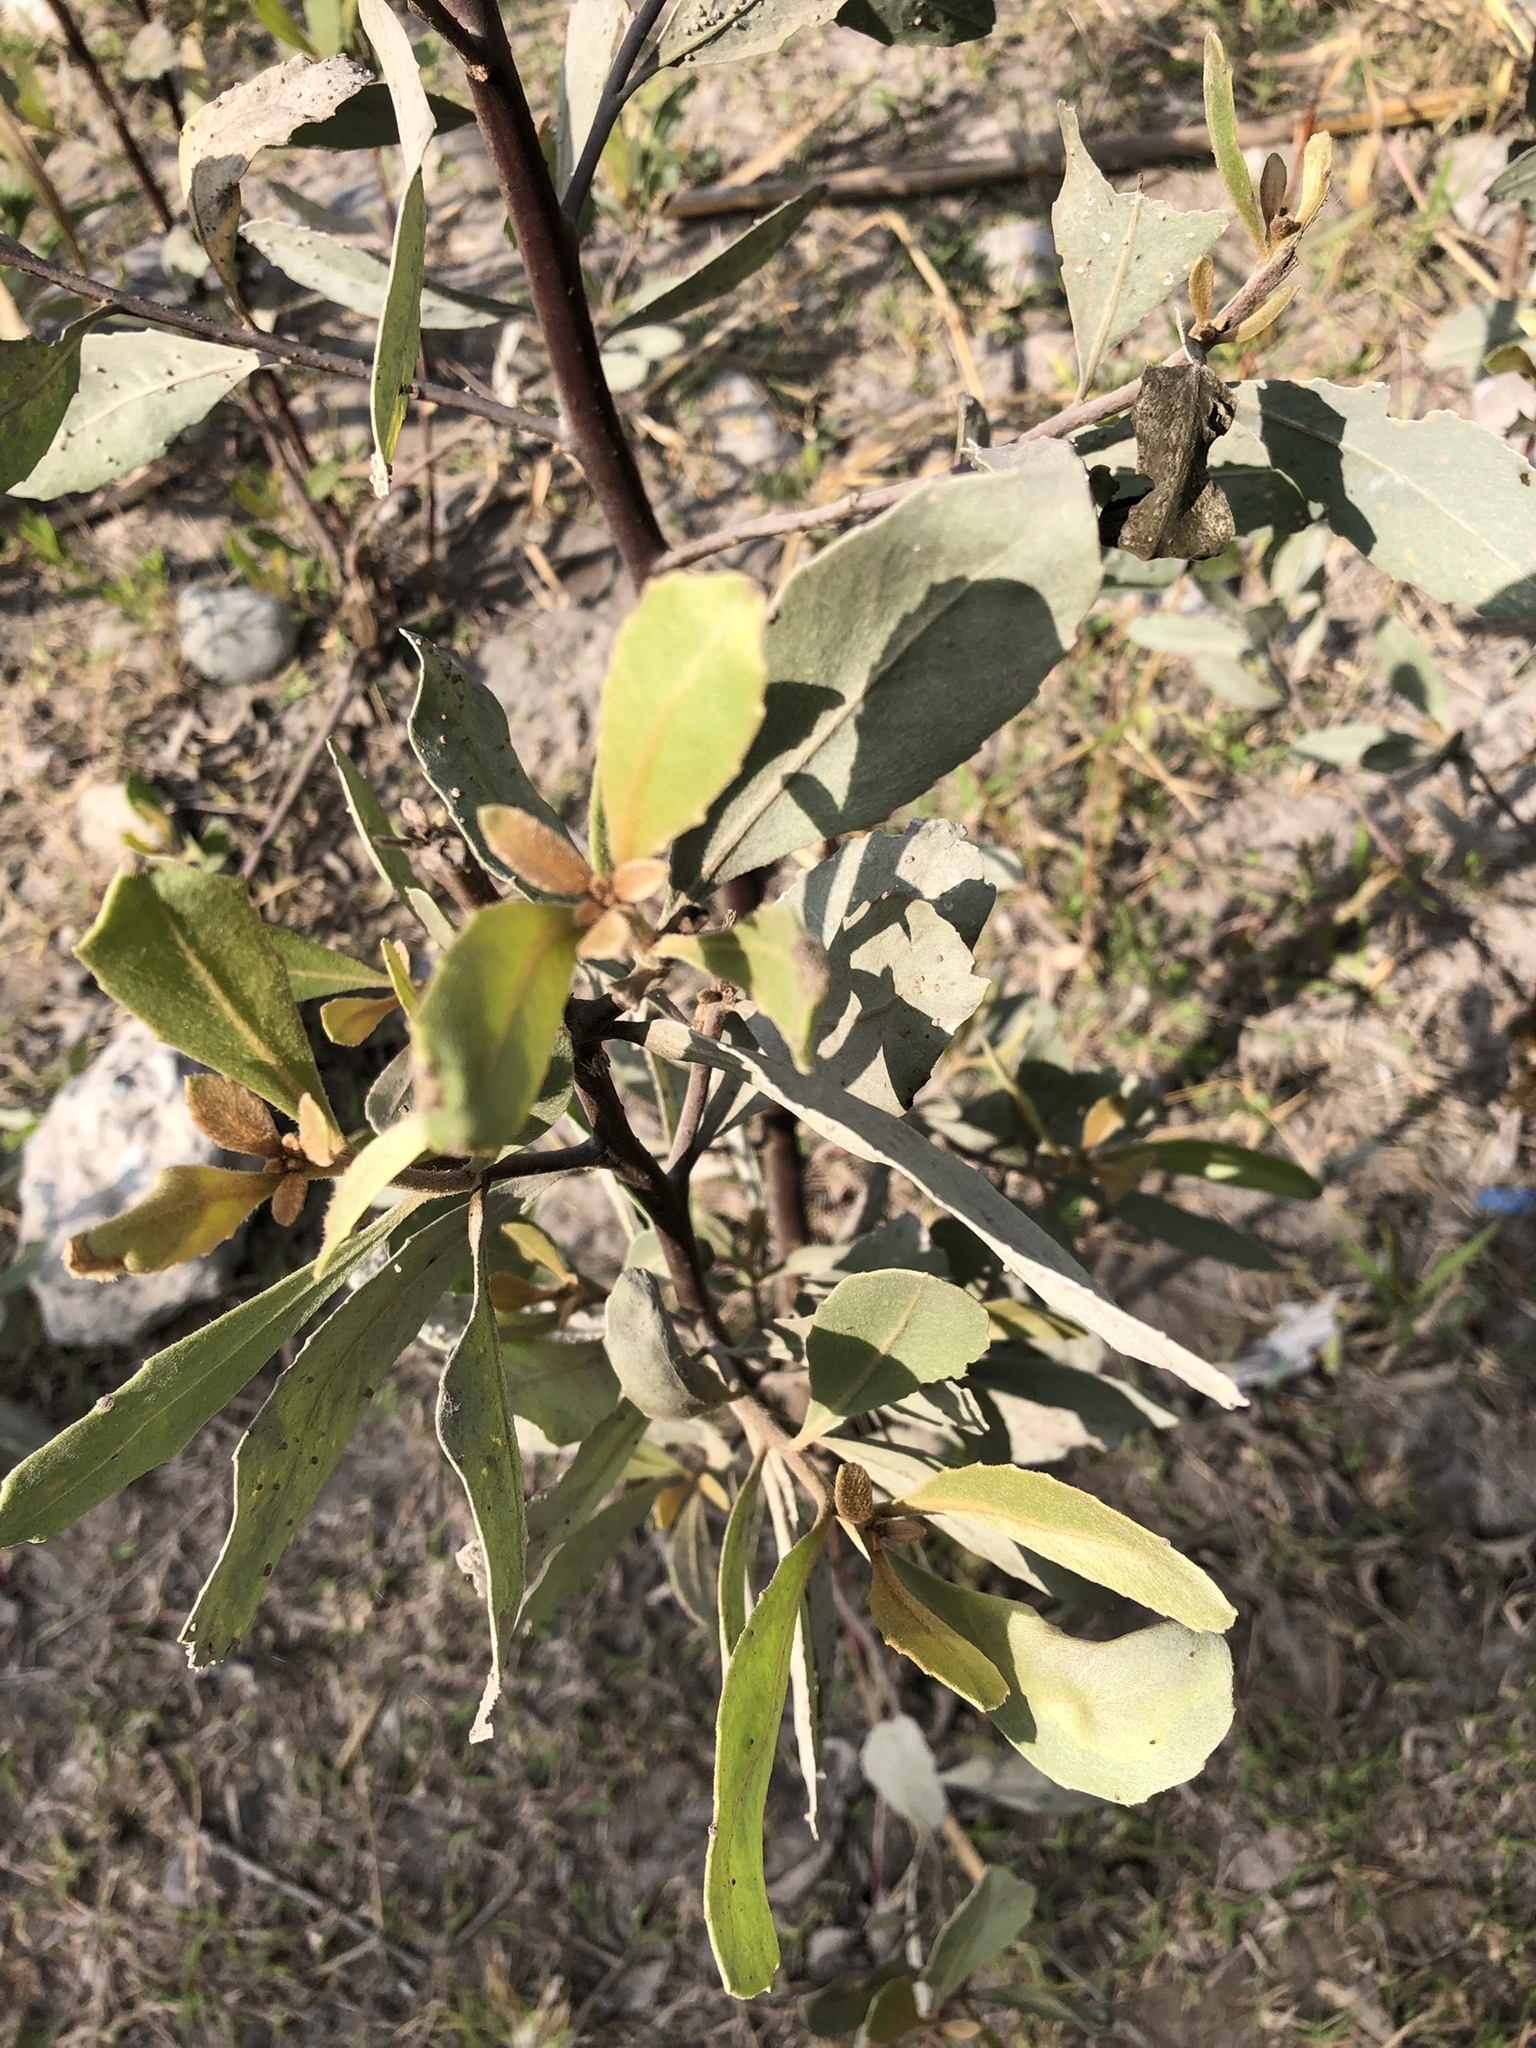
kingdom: Plantae
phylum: Tracheophyta
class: Magnoliopsida
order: Asterales
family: Asteraceae
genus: Tessaria
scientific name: Tessaria integrifolia
